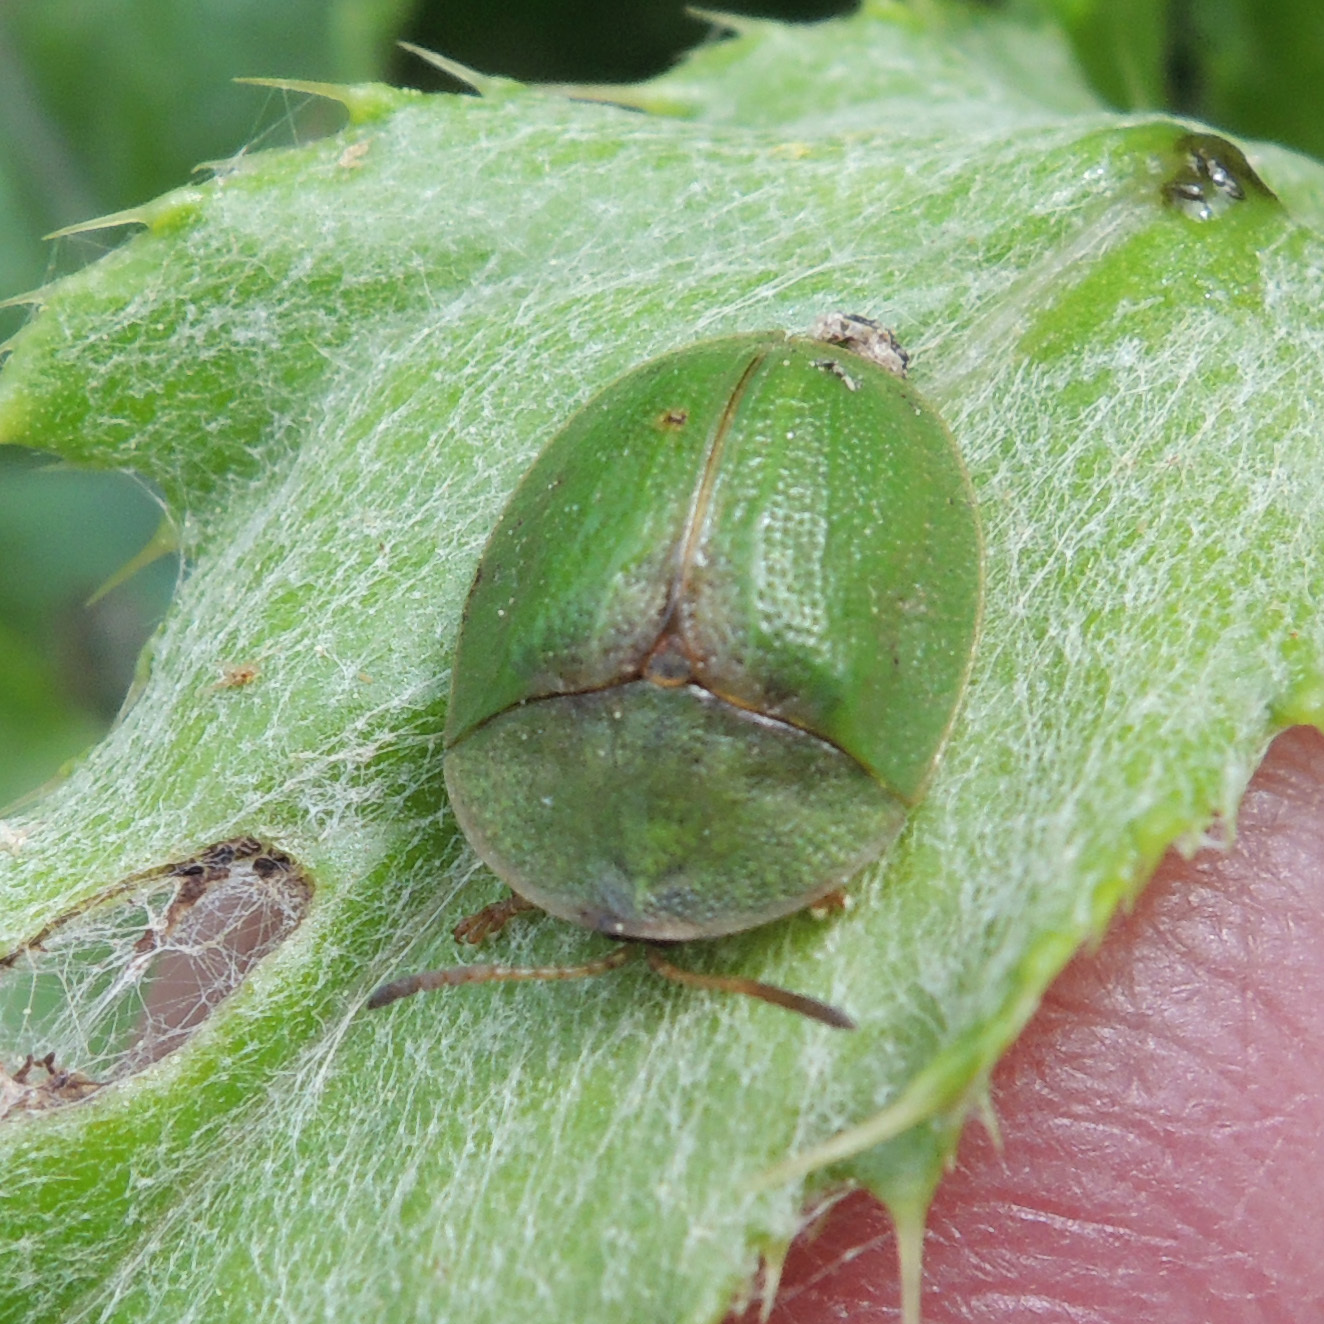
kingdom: Animalia
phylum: Arthropoda
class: Insecta
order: Coleoptera
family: Chrysomelidae
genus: Cassida
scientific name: Cassida rubiginosa
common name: Thistle tortoise beetle
